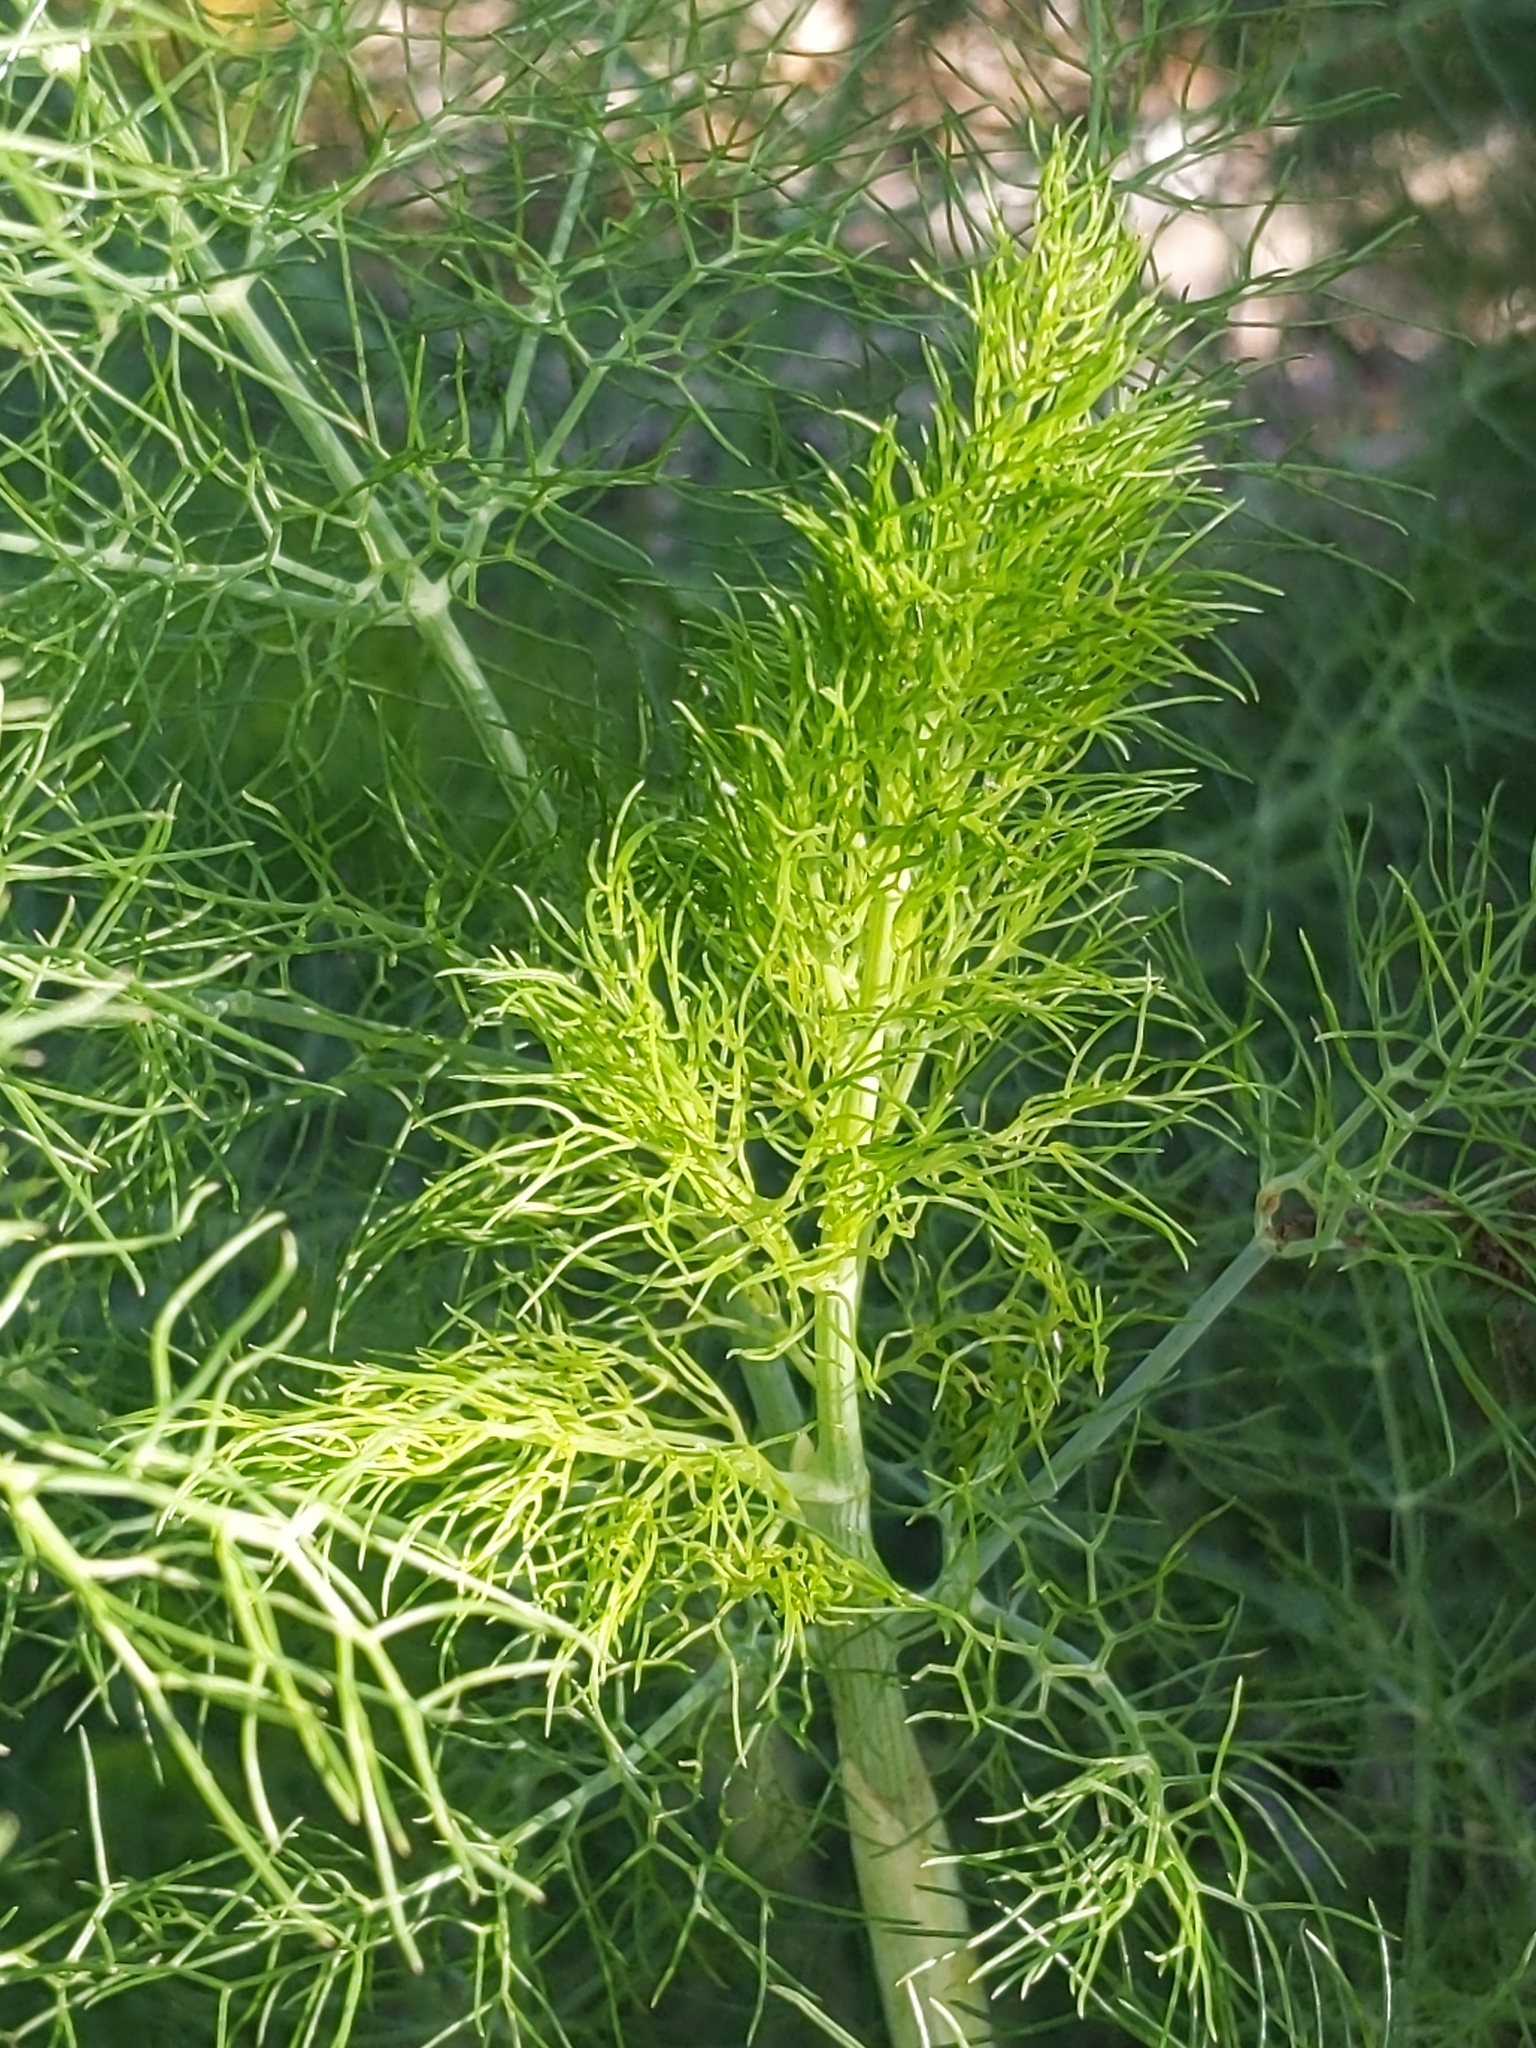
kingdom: Plantae
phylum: Tracheophyta
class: Magnoliopsida
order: Apiales
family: Apiaceae
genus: Foeniculum
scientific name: Foeniculum vulgare
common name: Fennel
